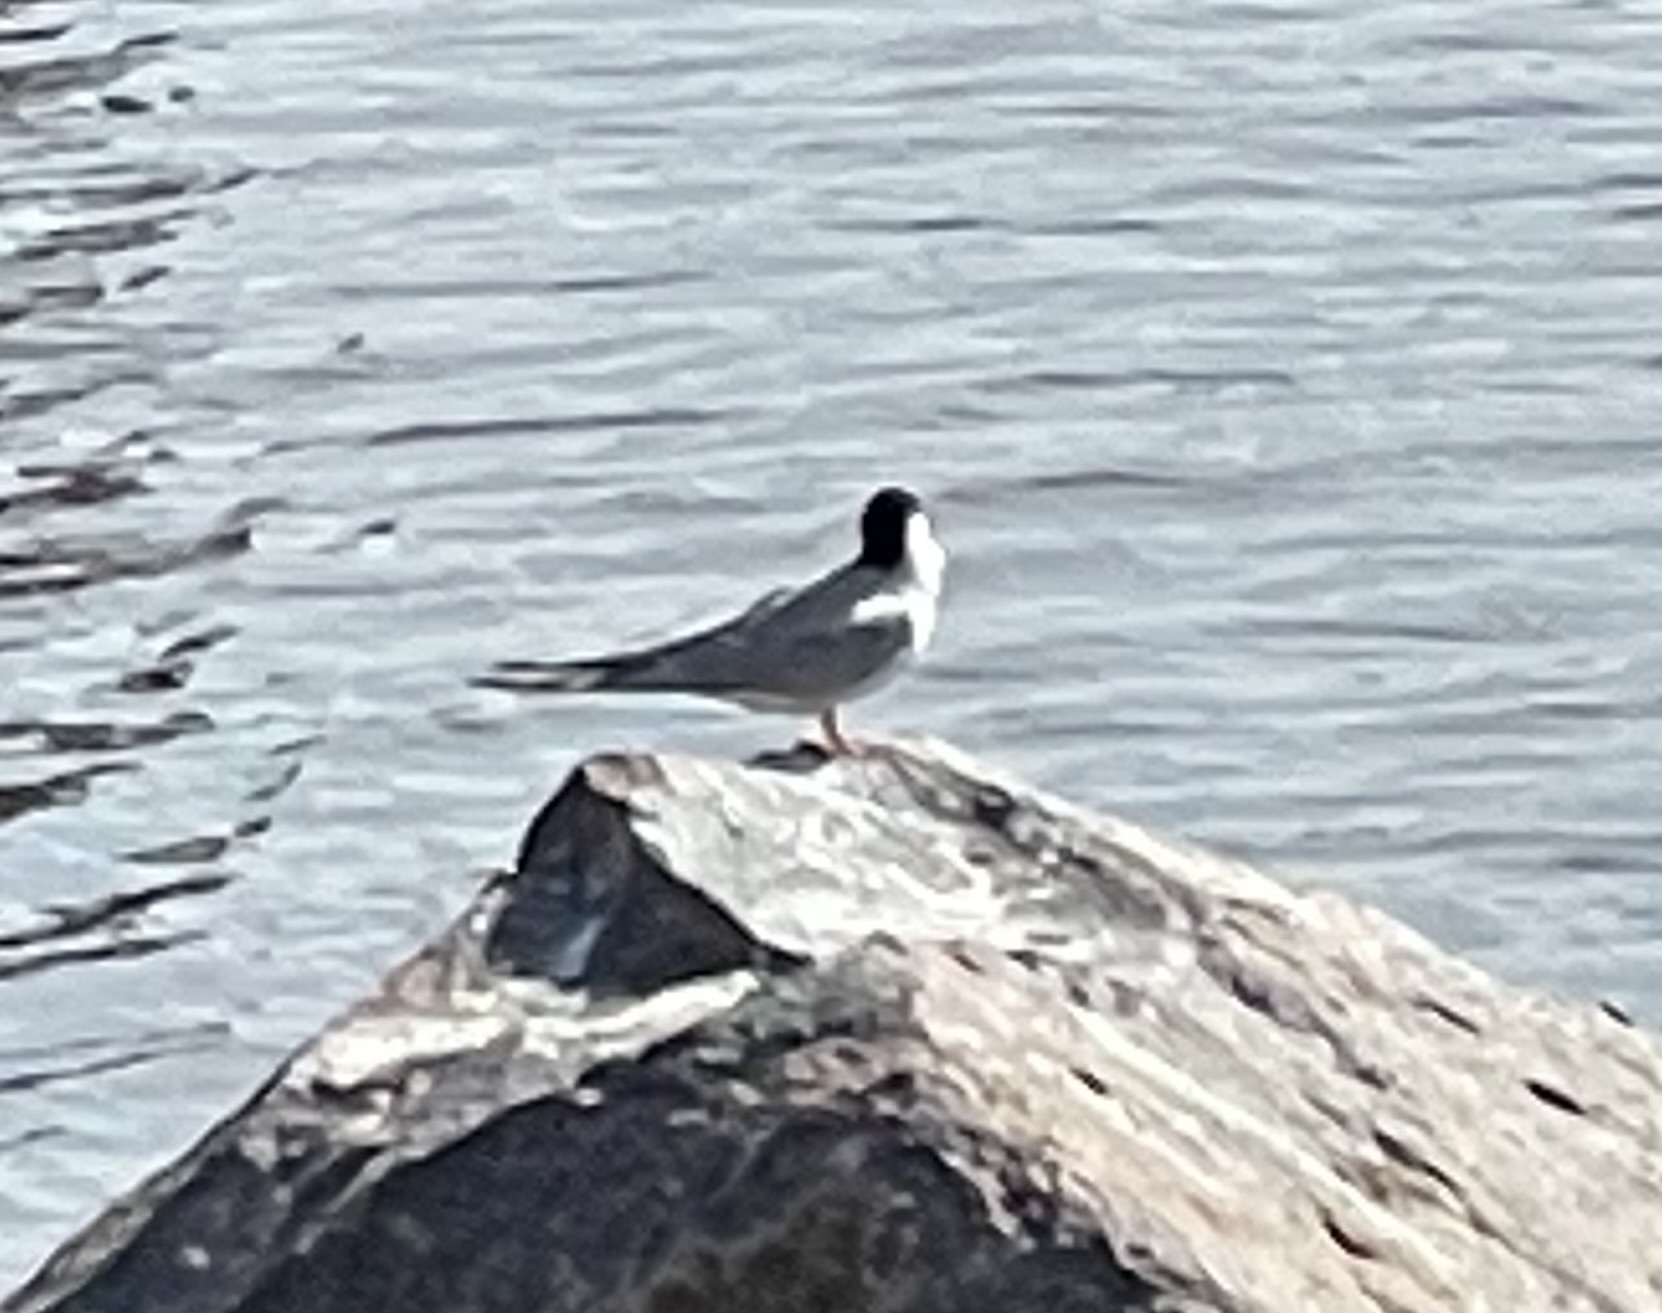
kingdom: Animalia
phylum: Chordata
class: Aves
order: Charadriiformes
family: Laridae
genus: Sterna
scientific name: Sterna hirundo
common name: Common tern
